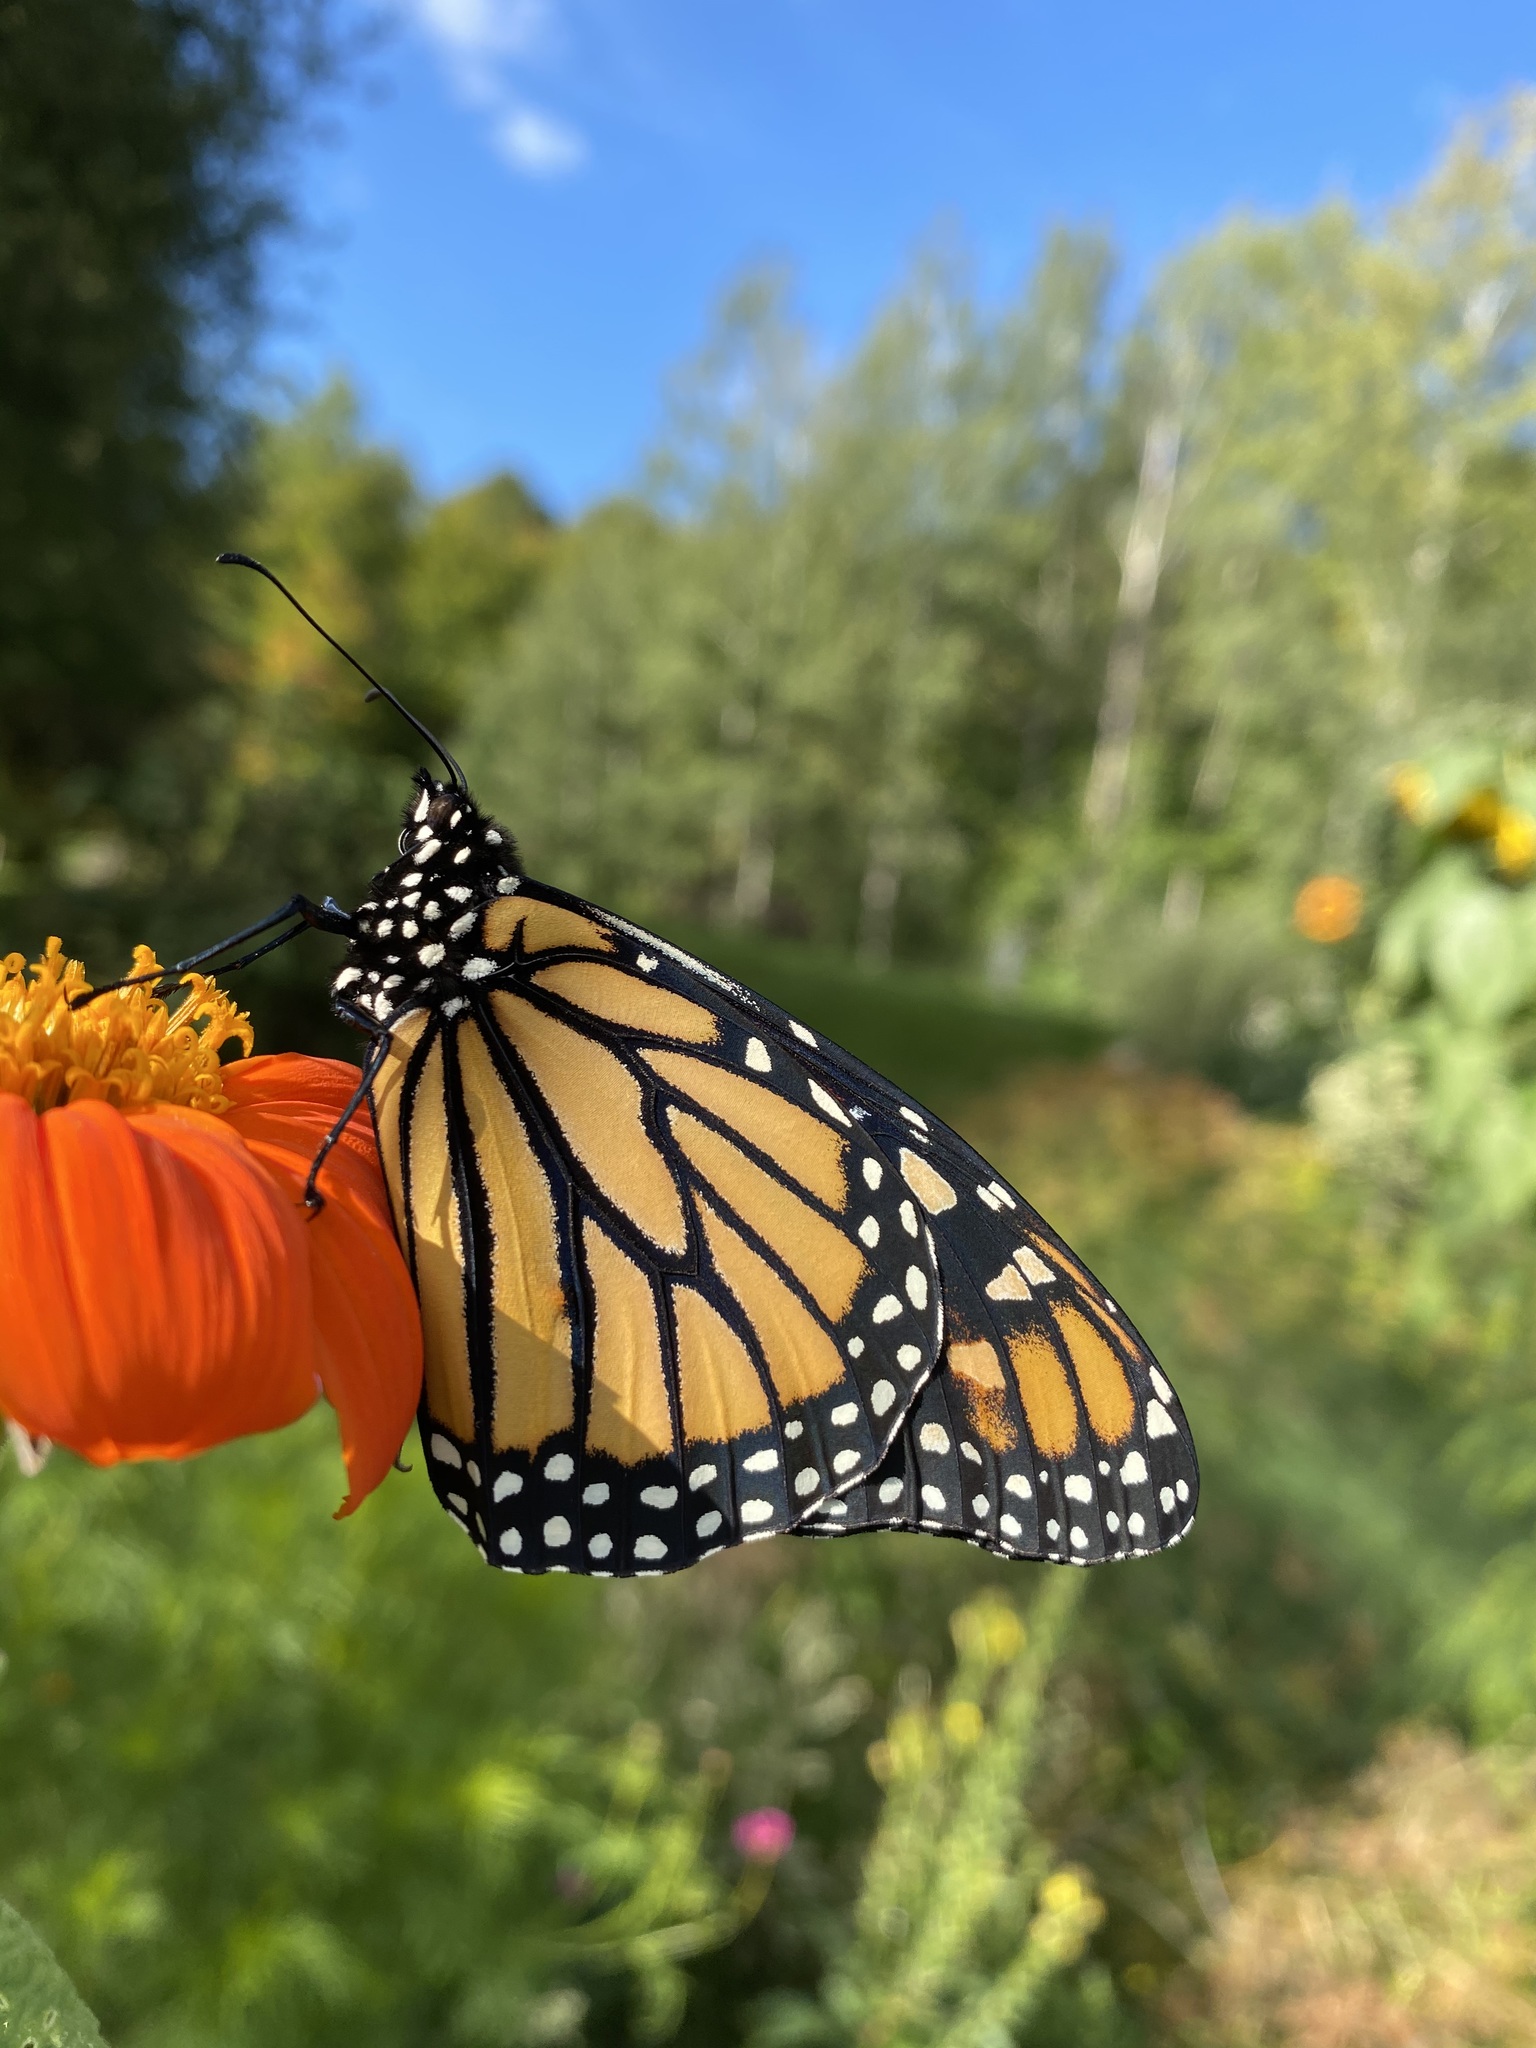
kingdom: Animalia
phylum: Arthropoda
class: Insecta
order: Lepidoptera
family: Nymphalidae
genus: Danaus
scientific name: Danaus plexippus
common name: Monarch
